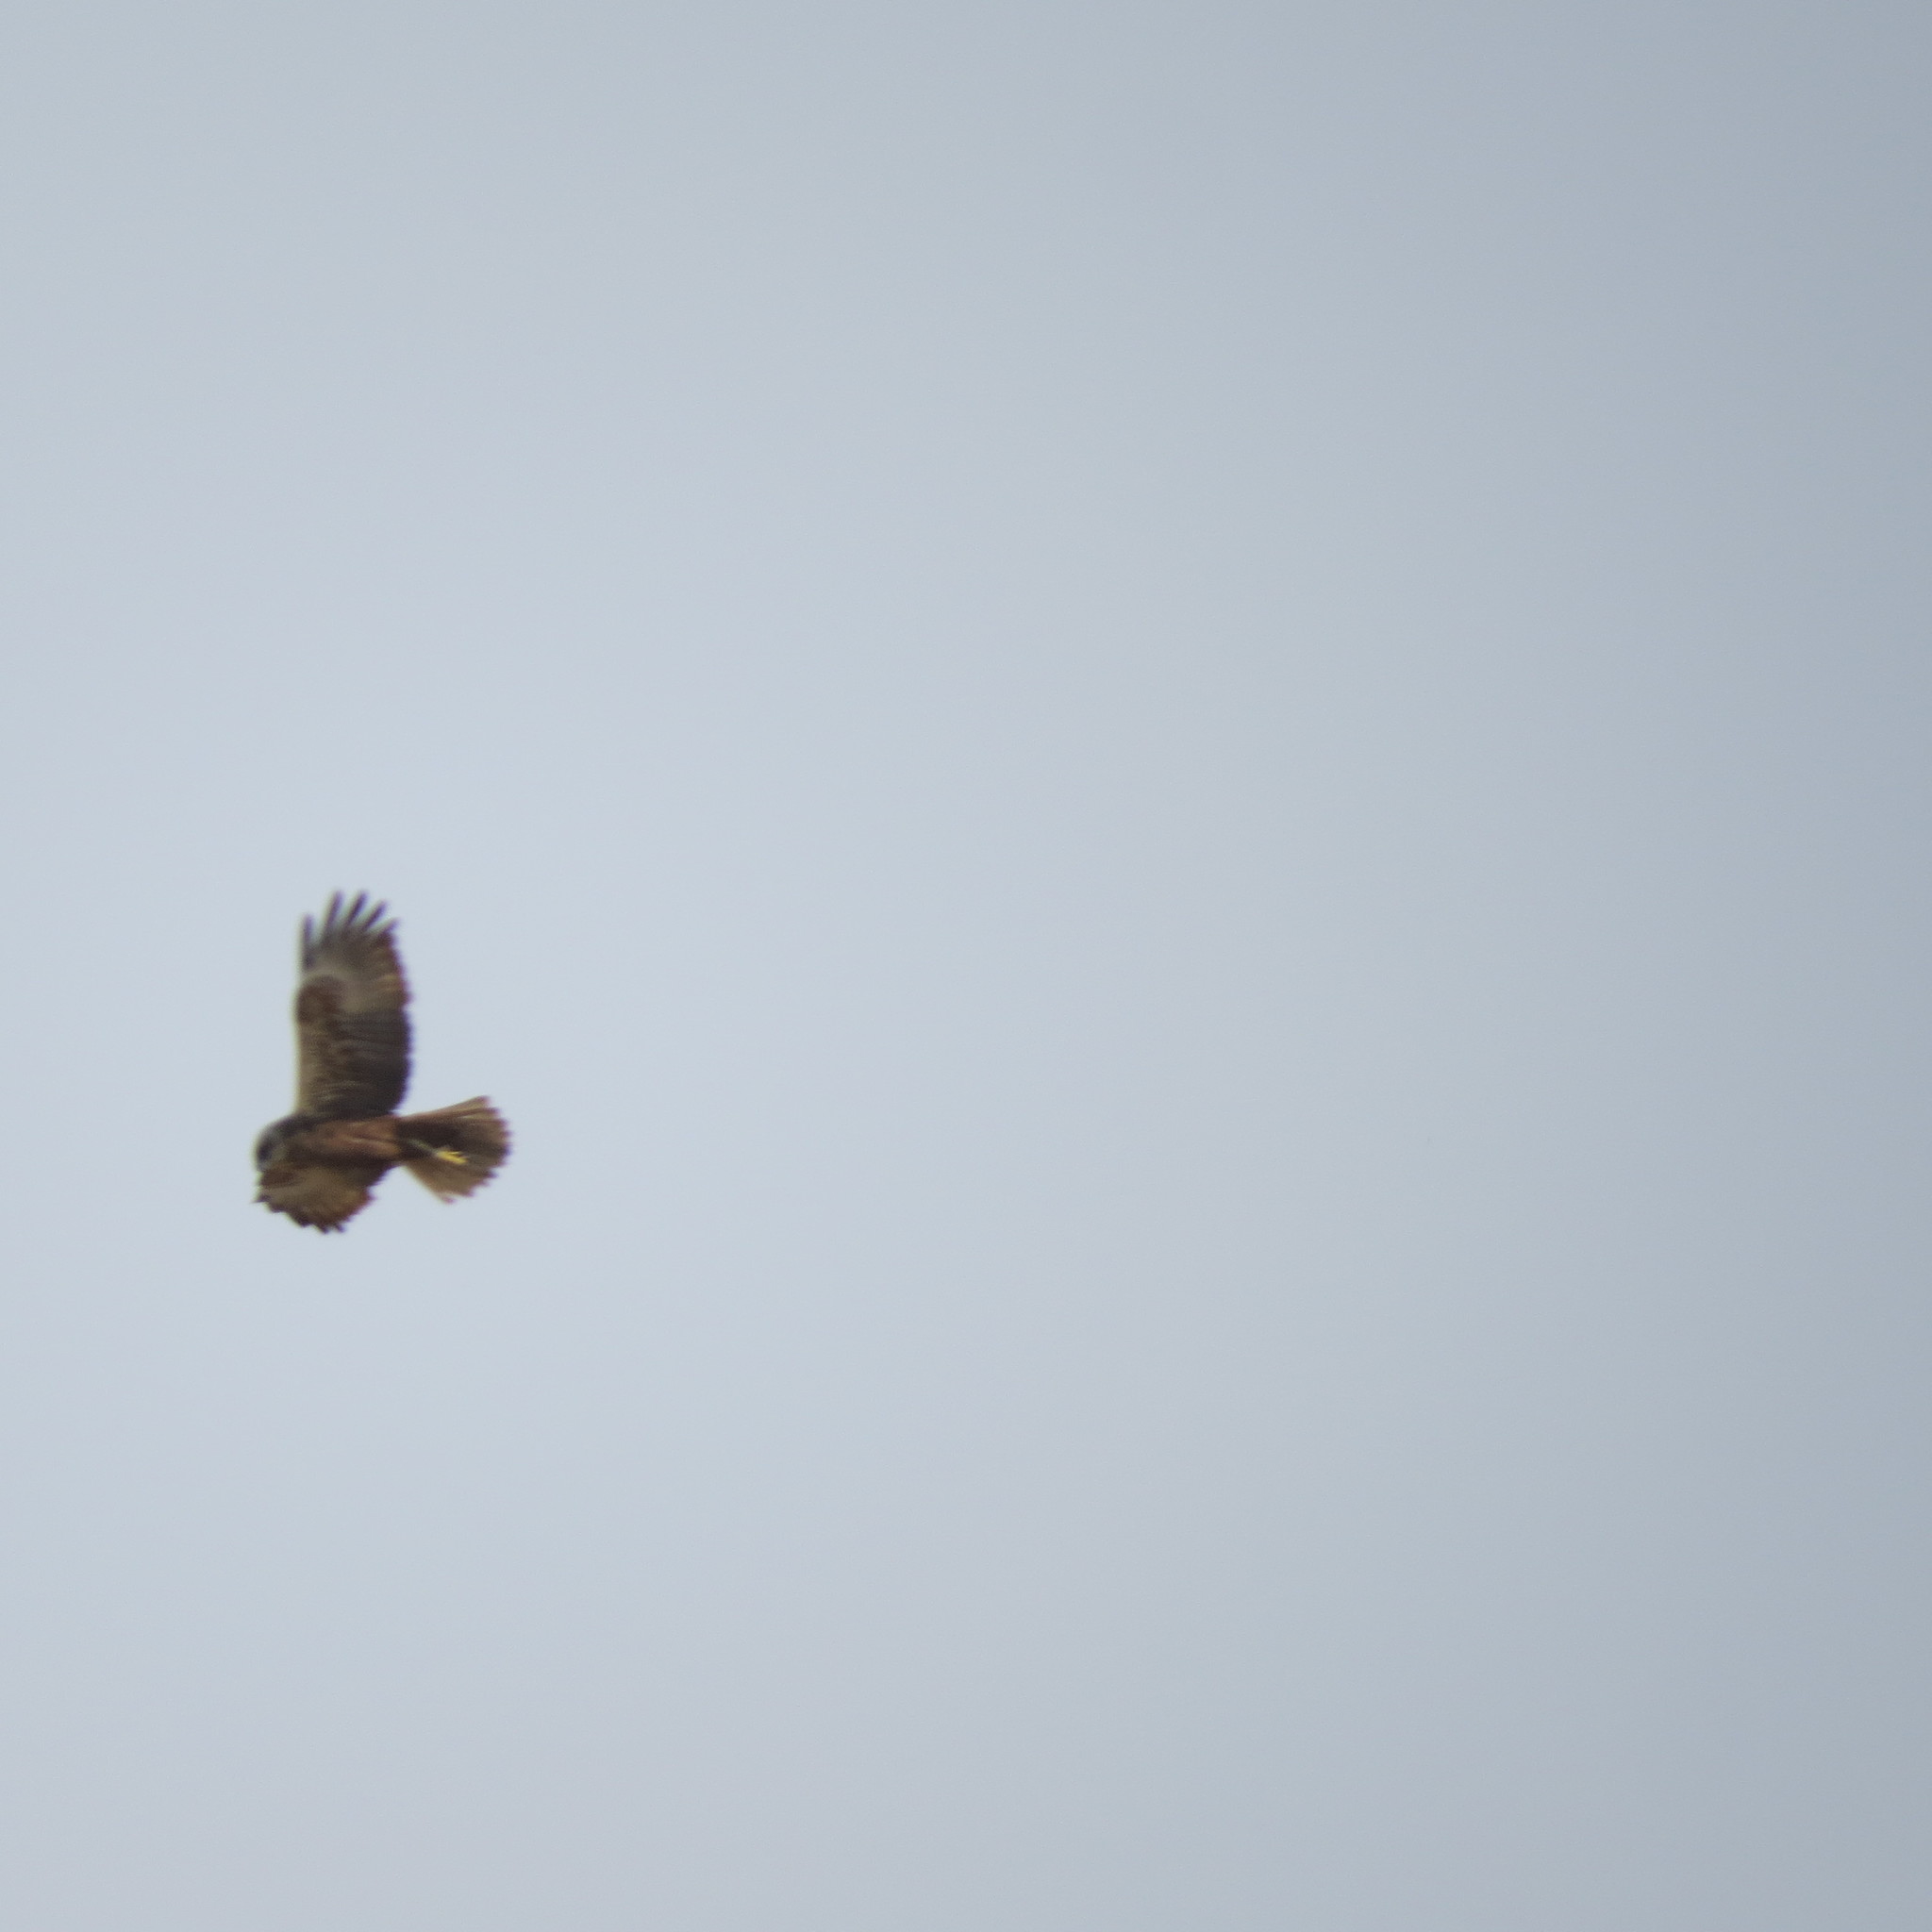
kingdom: Animalia
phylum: Chordata
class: Aves
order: Accipitriformes
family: Accipitridae
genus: Circus
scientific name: Circus aeruginosus
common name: Western marsh harrier
